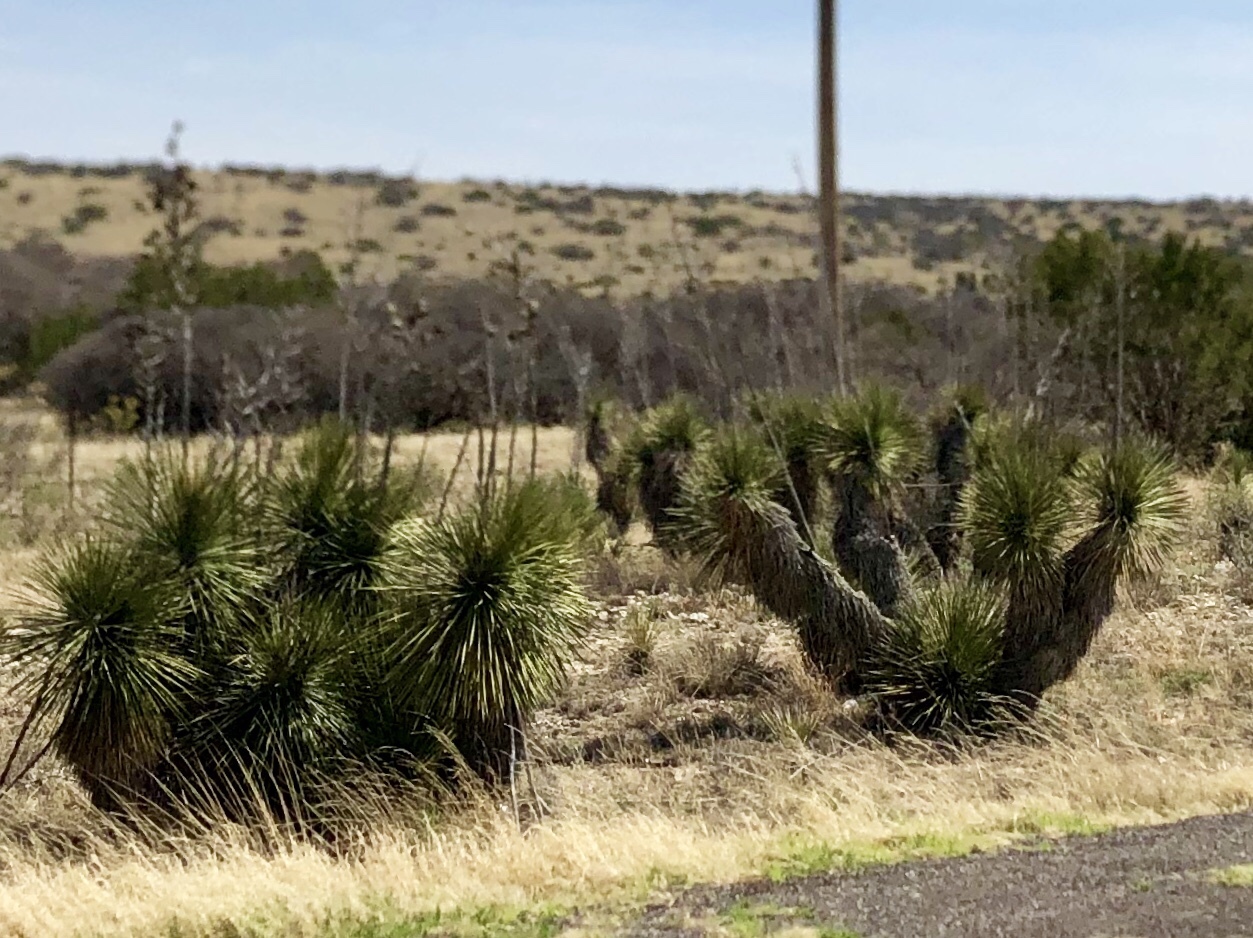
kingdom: Plantae
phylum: Tracheophyta
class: Liliopsida
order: Asparagales
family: Asparagaceae
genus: Yucca
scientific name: Yucca elata
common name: Palmella
